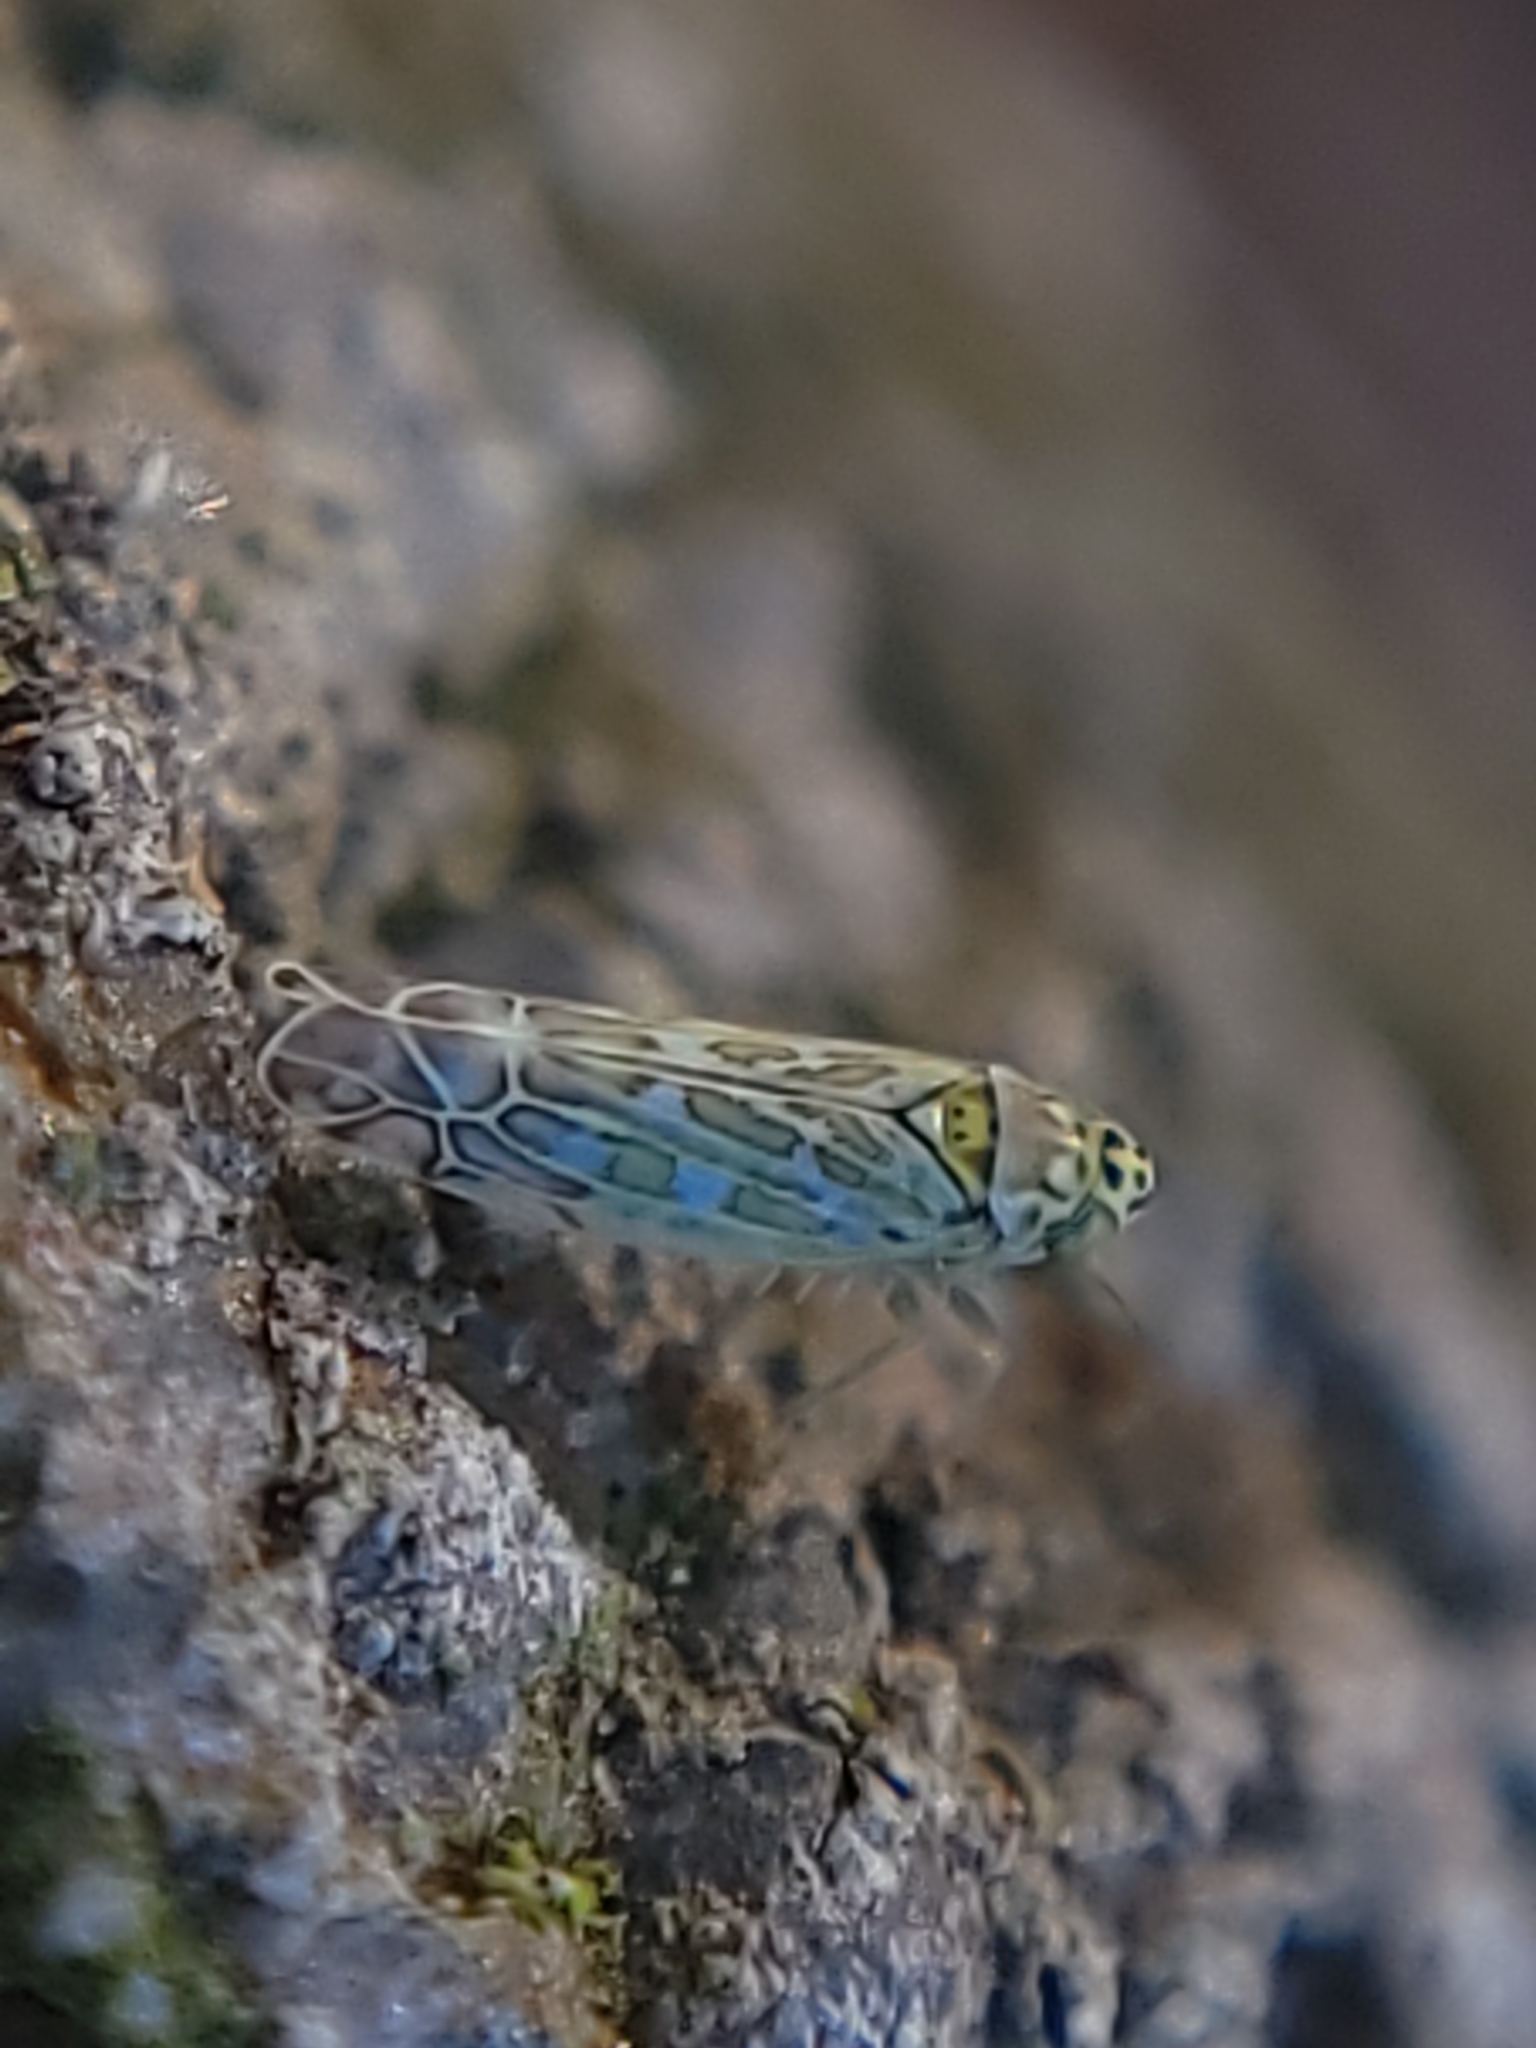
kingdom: Animalia
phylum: Arthropoda
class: Insecta
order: Hemiptera
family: Cicadellidae
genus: Eupteryx
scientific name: Eupteryx decemnotata
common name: Ligurian leafhopper
